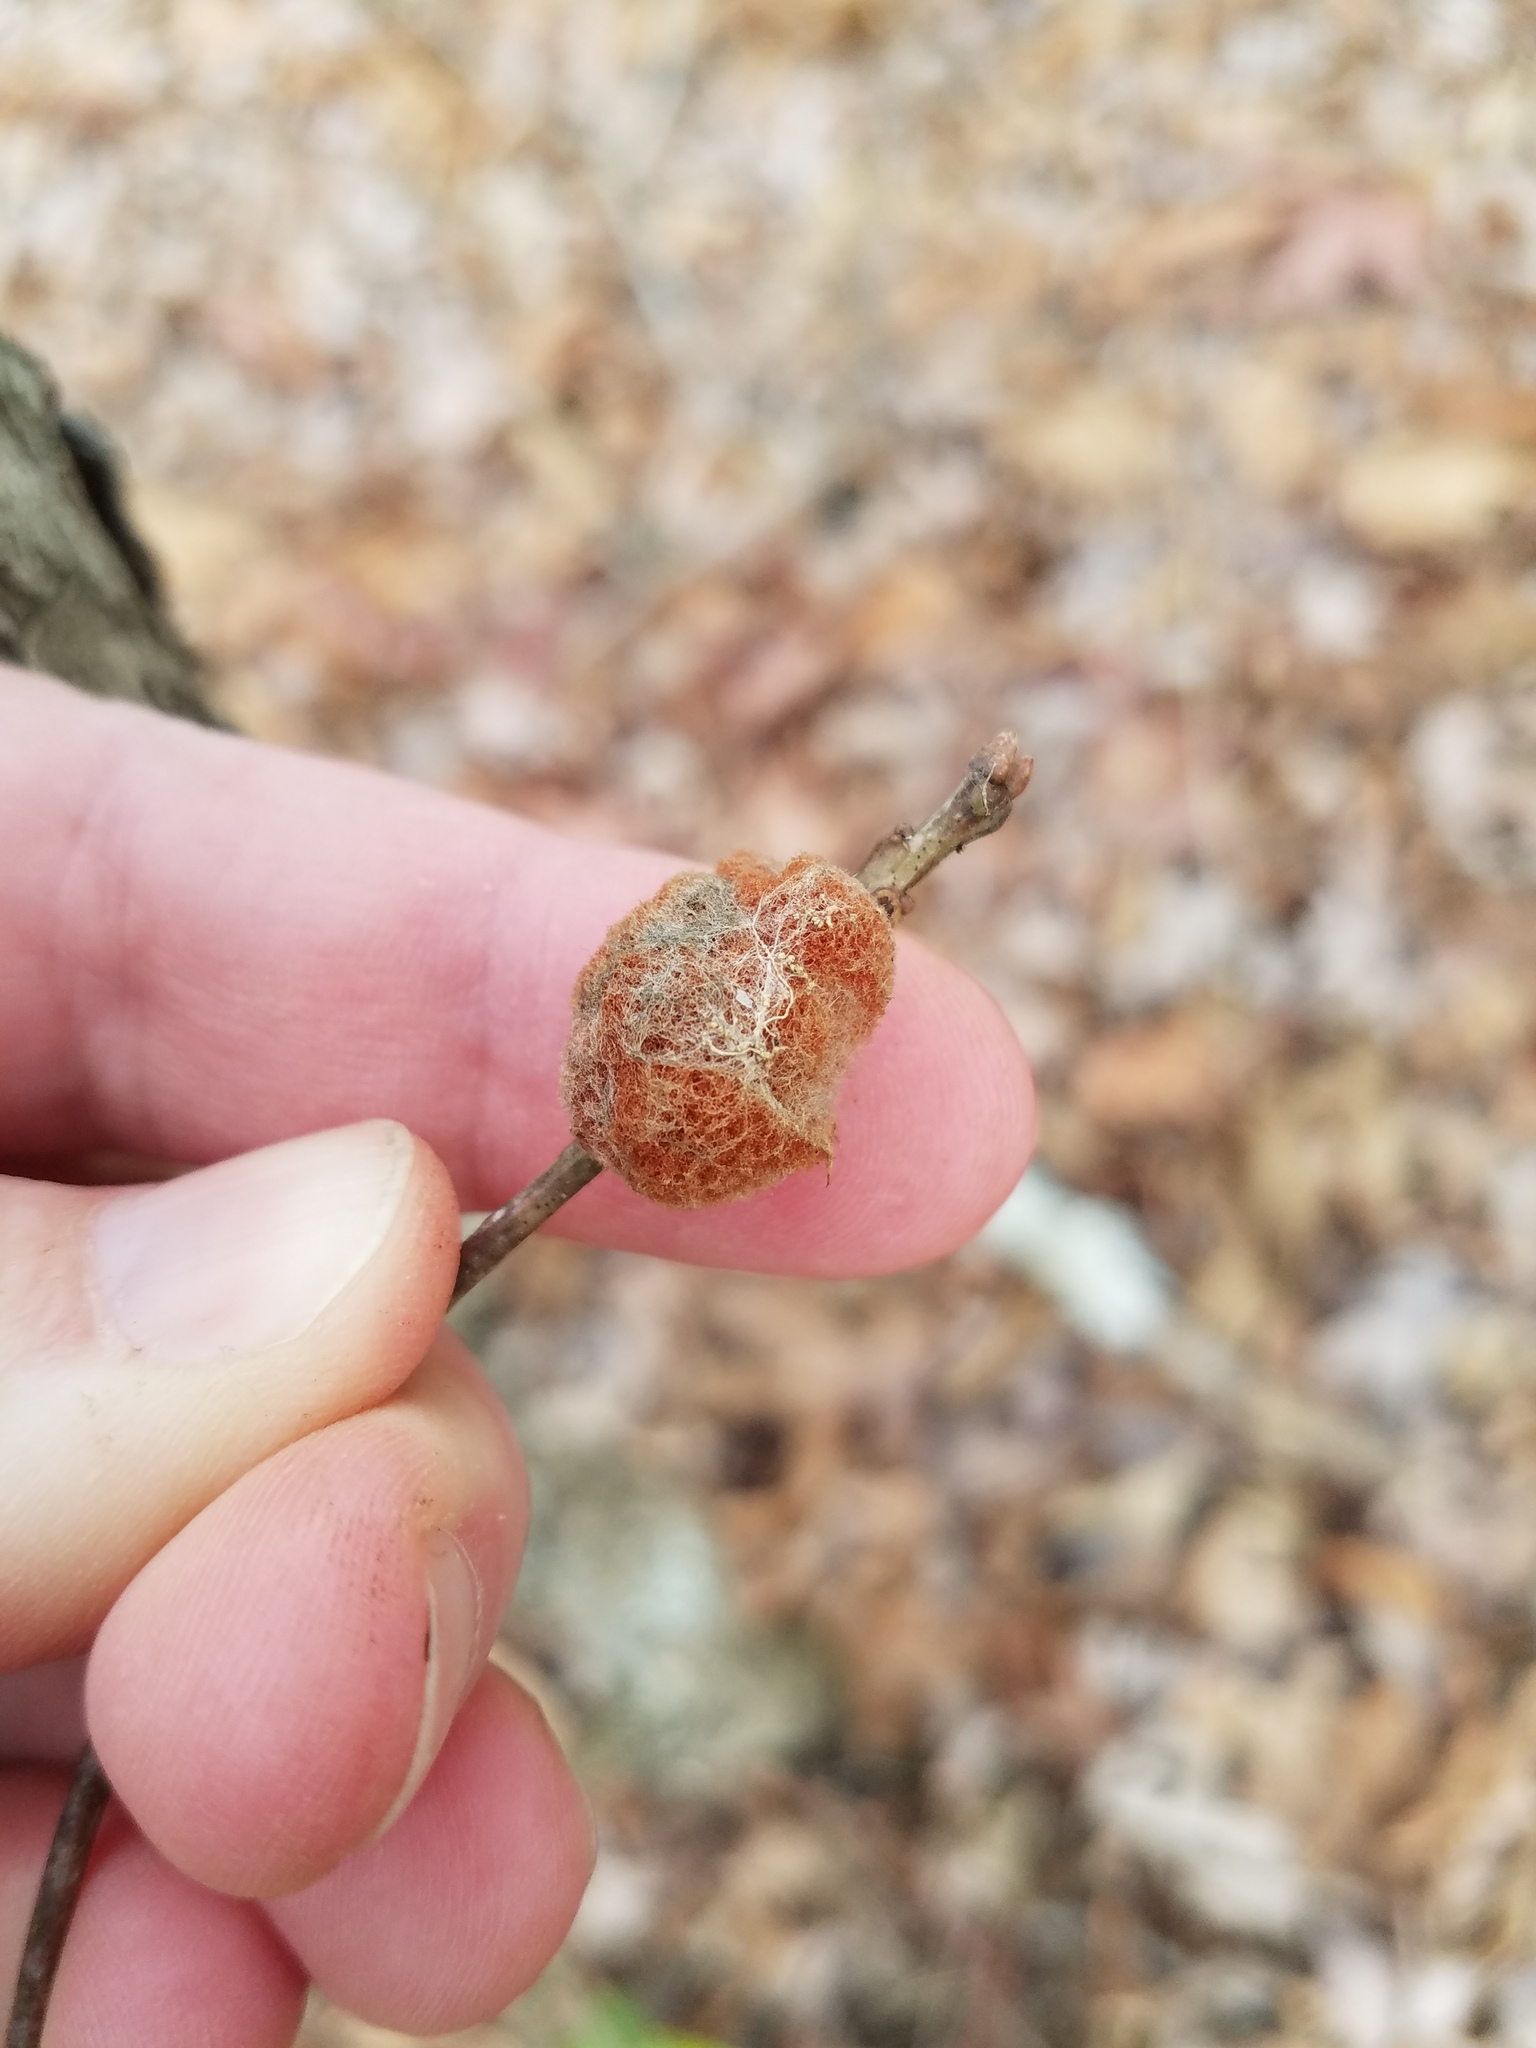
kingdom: Animalia
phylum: Arthropoda
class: Insecta
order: Hymenoptera
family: Cynipidae
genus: Andricus
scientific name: Andricus quercusflocci
